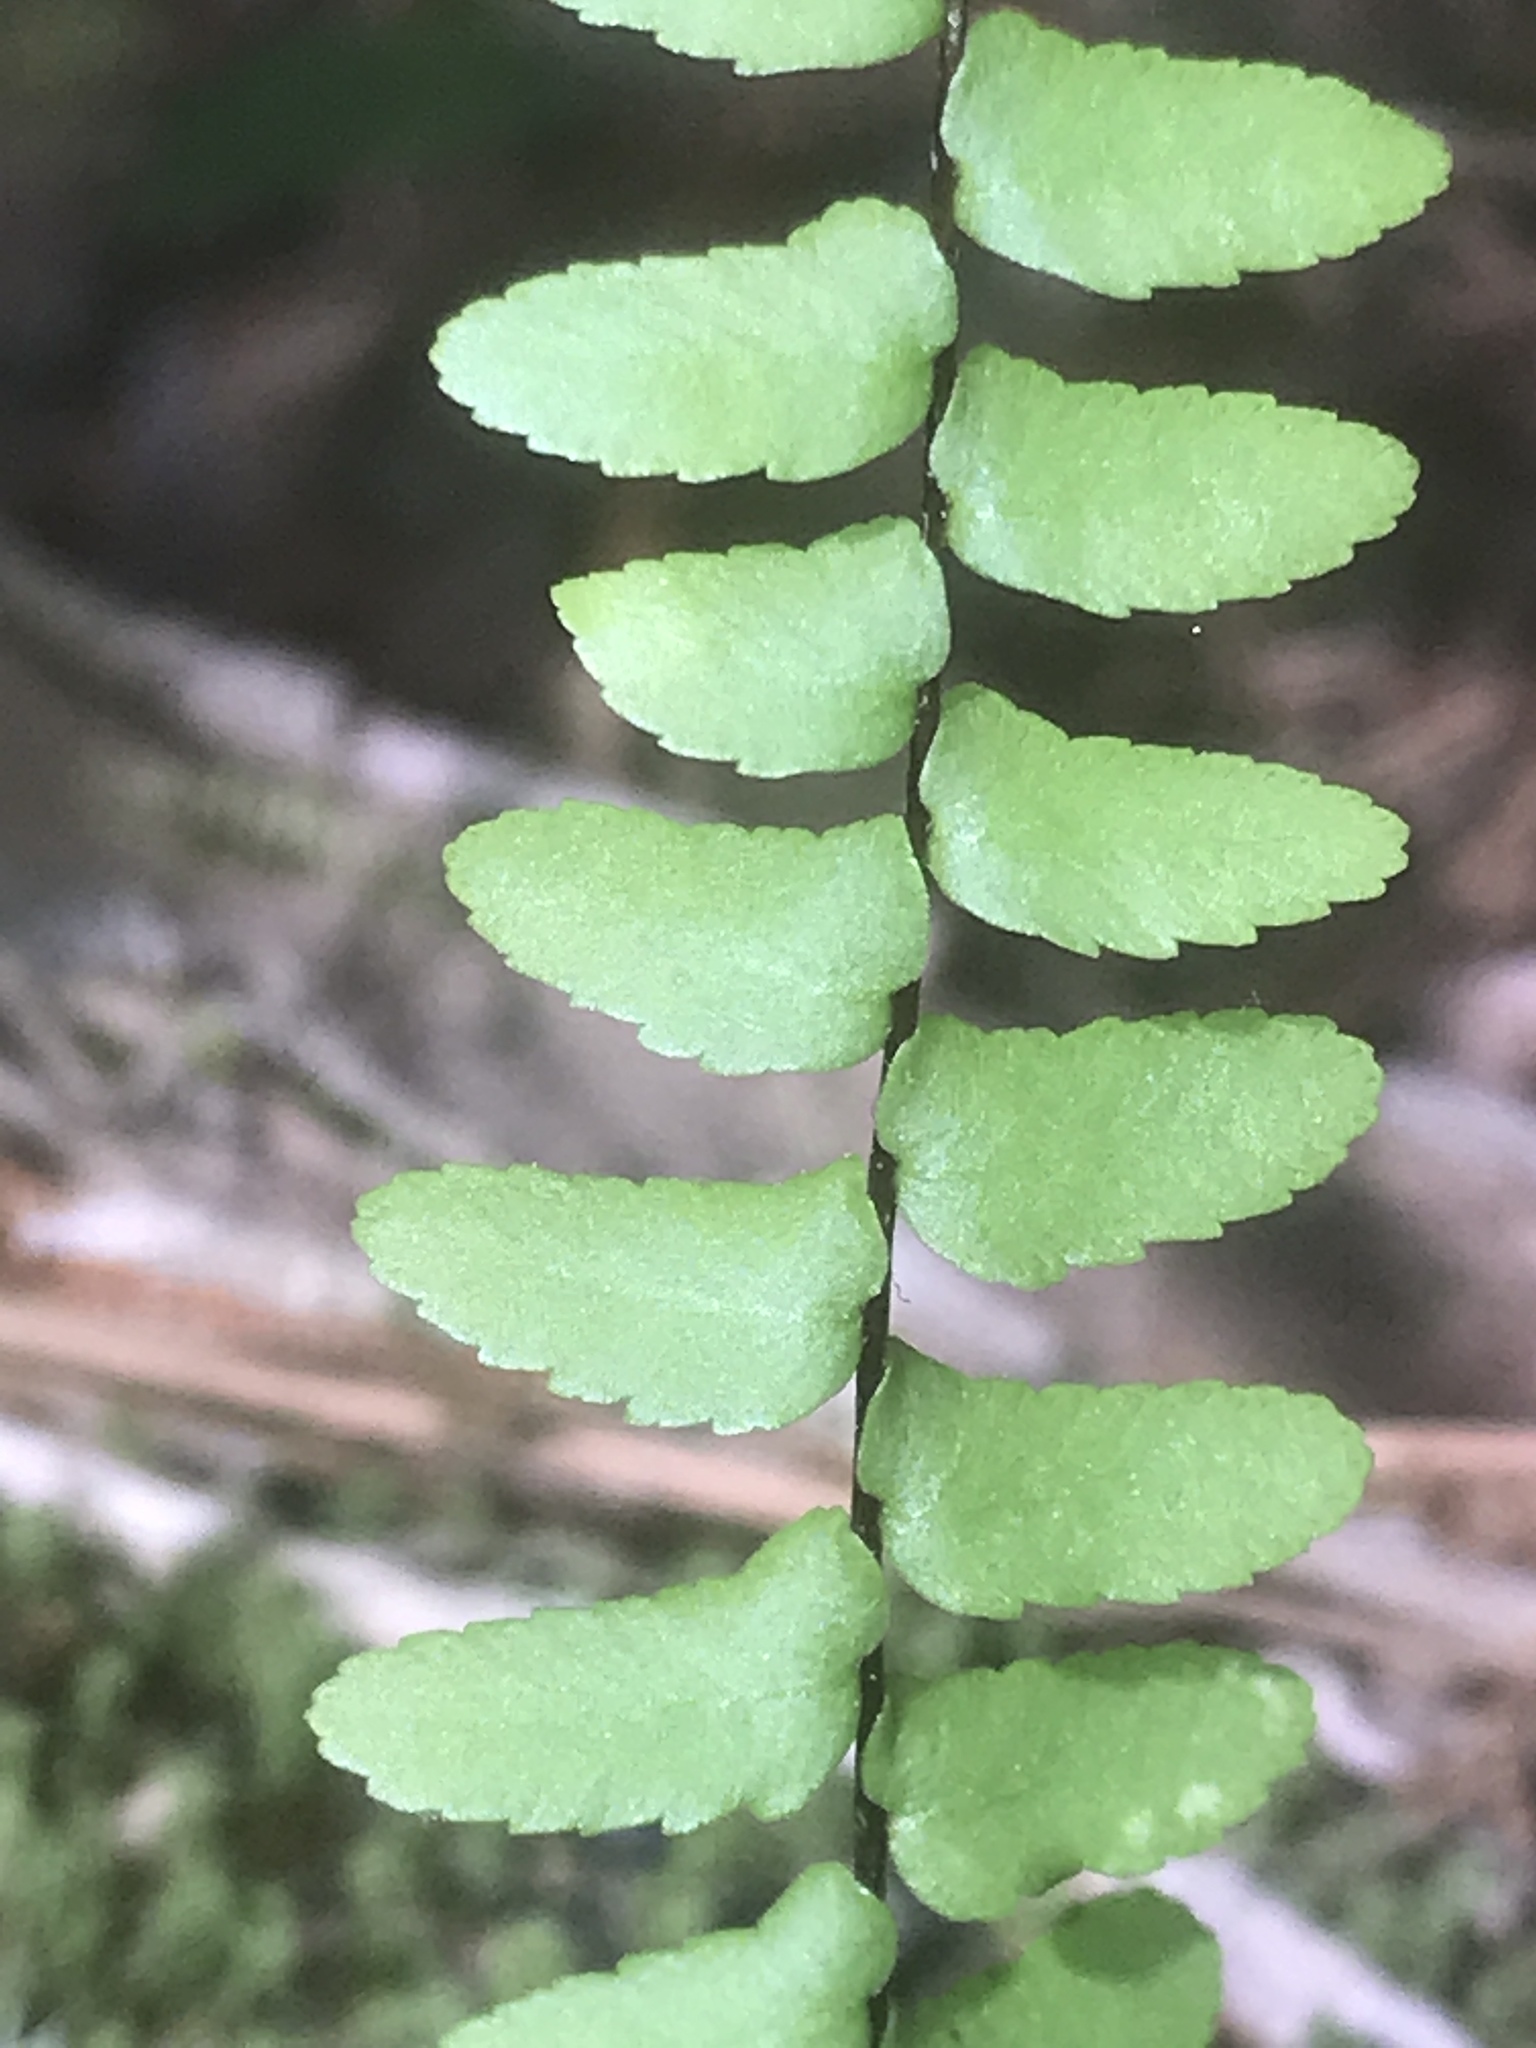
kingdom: Plantae
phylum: Tracheophyta
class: Polypodiopsida
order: Polypodiales
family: Aspleniaceae
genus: Asplenium
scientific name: Asplenium platyneuron
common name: Ebony spleenwort
